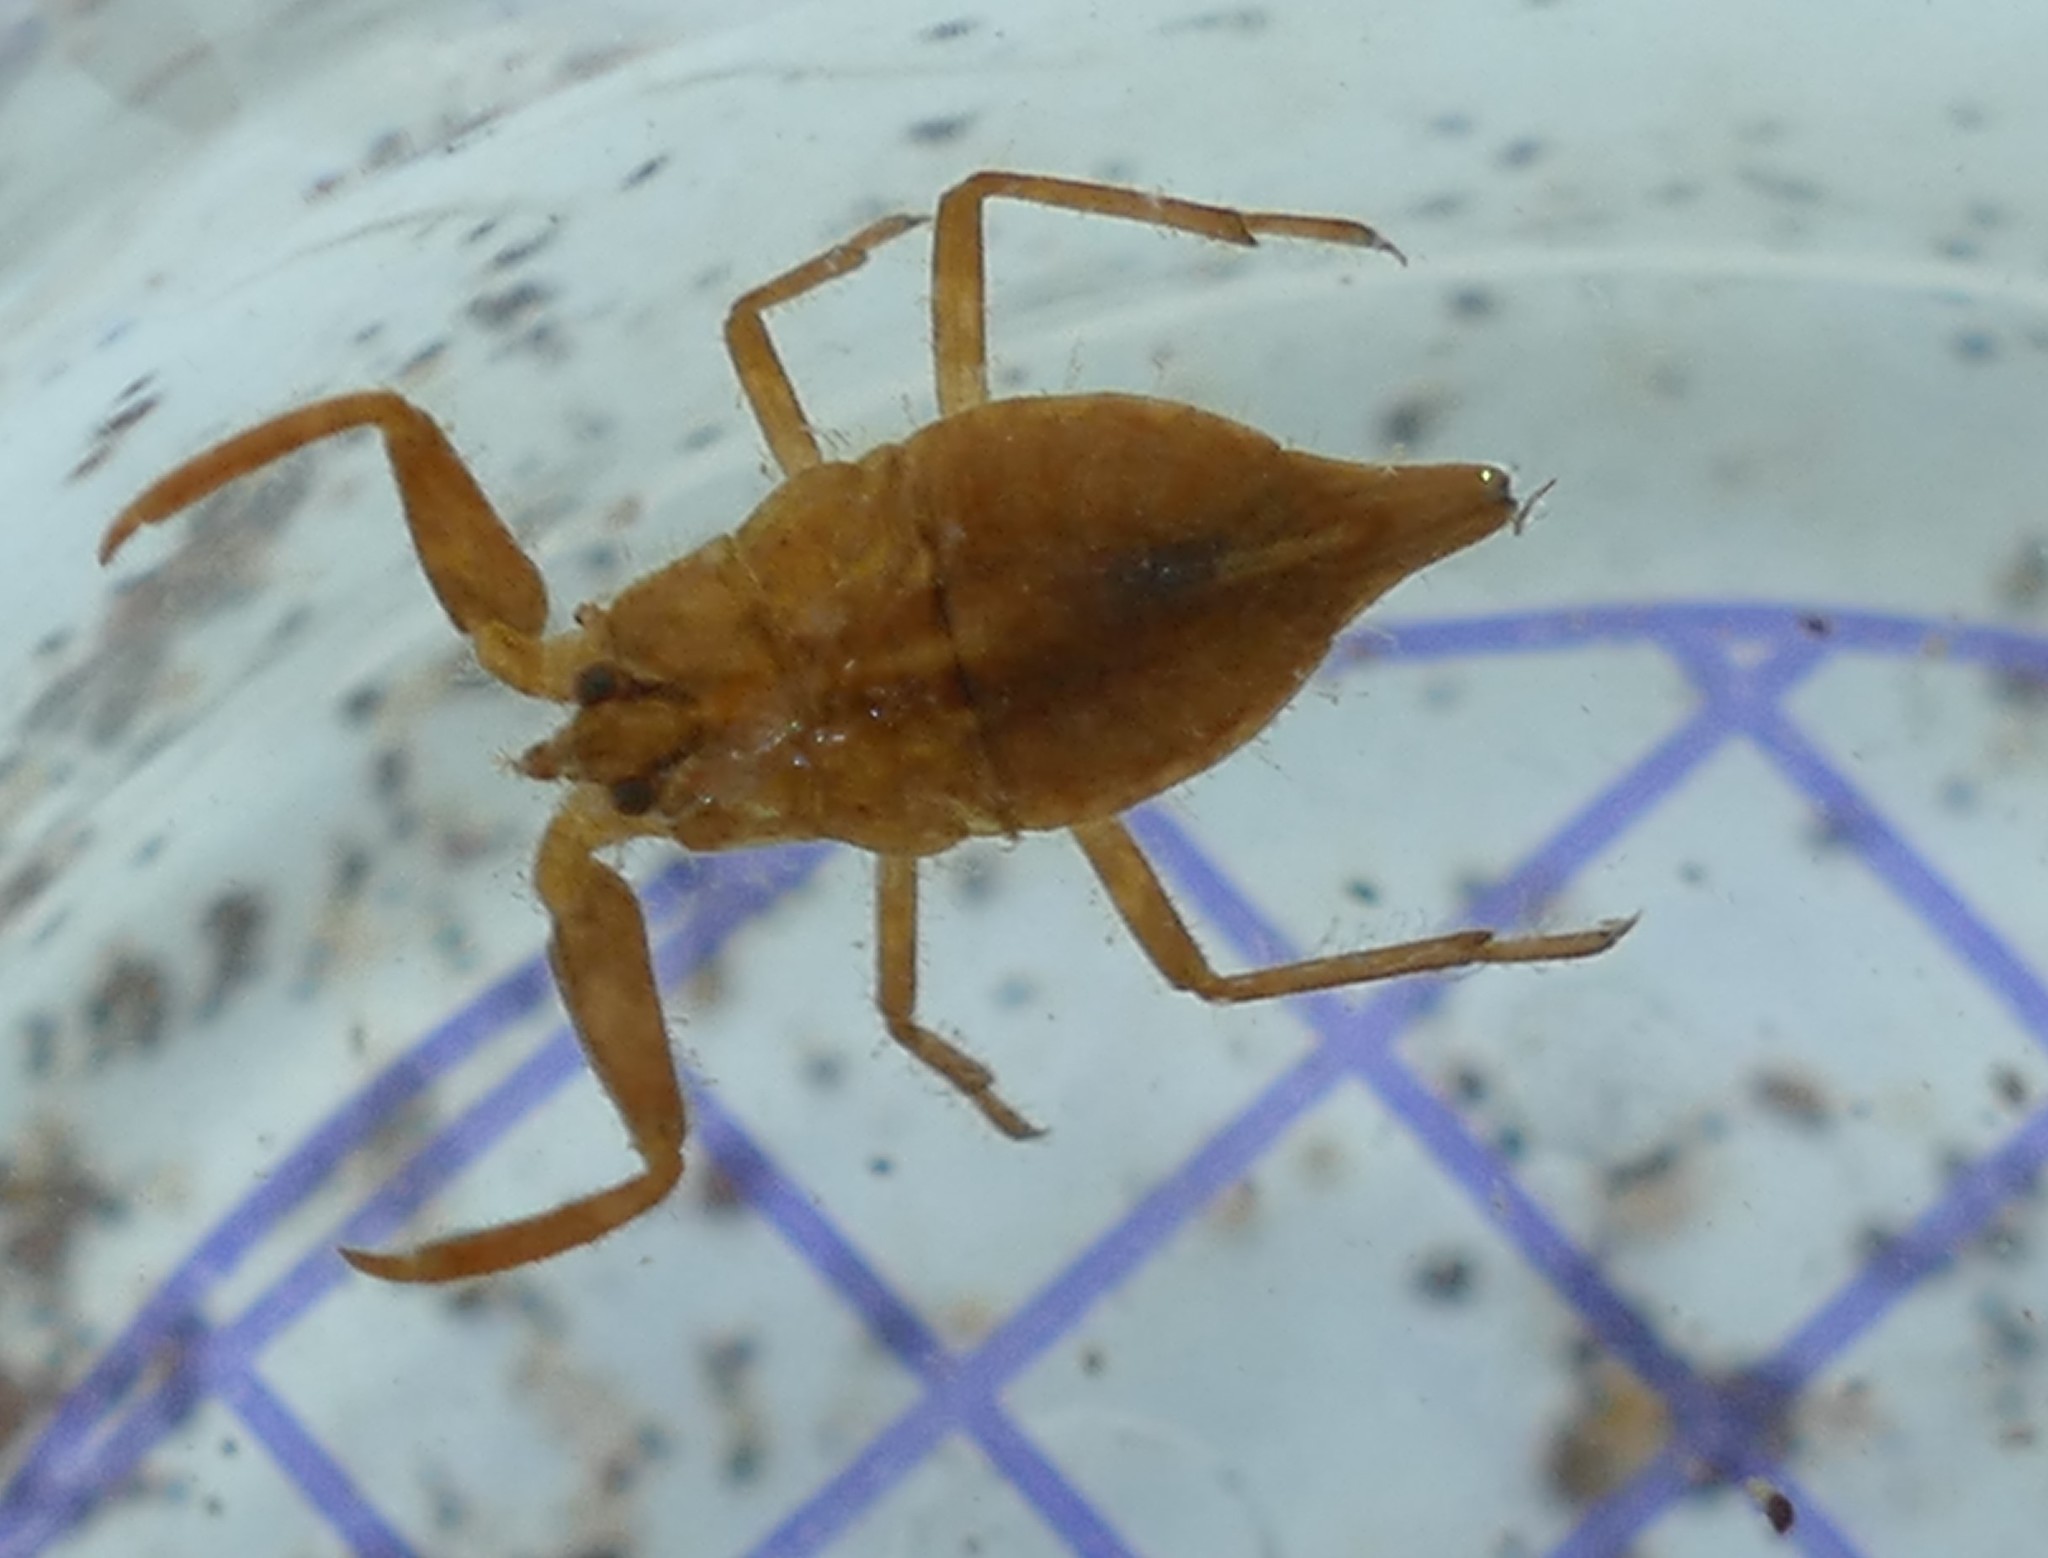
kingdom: Animalia
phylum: Arthropoda
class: Insecta
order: Hemiptera
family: Nepidae
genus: Nepa
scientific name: Nepa cinerea
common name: Water scorpion
